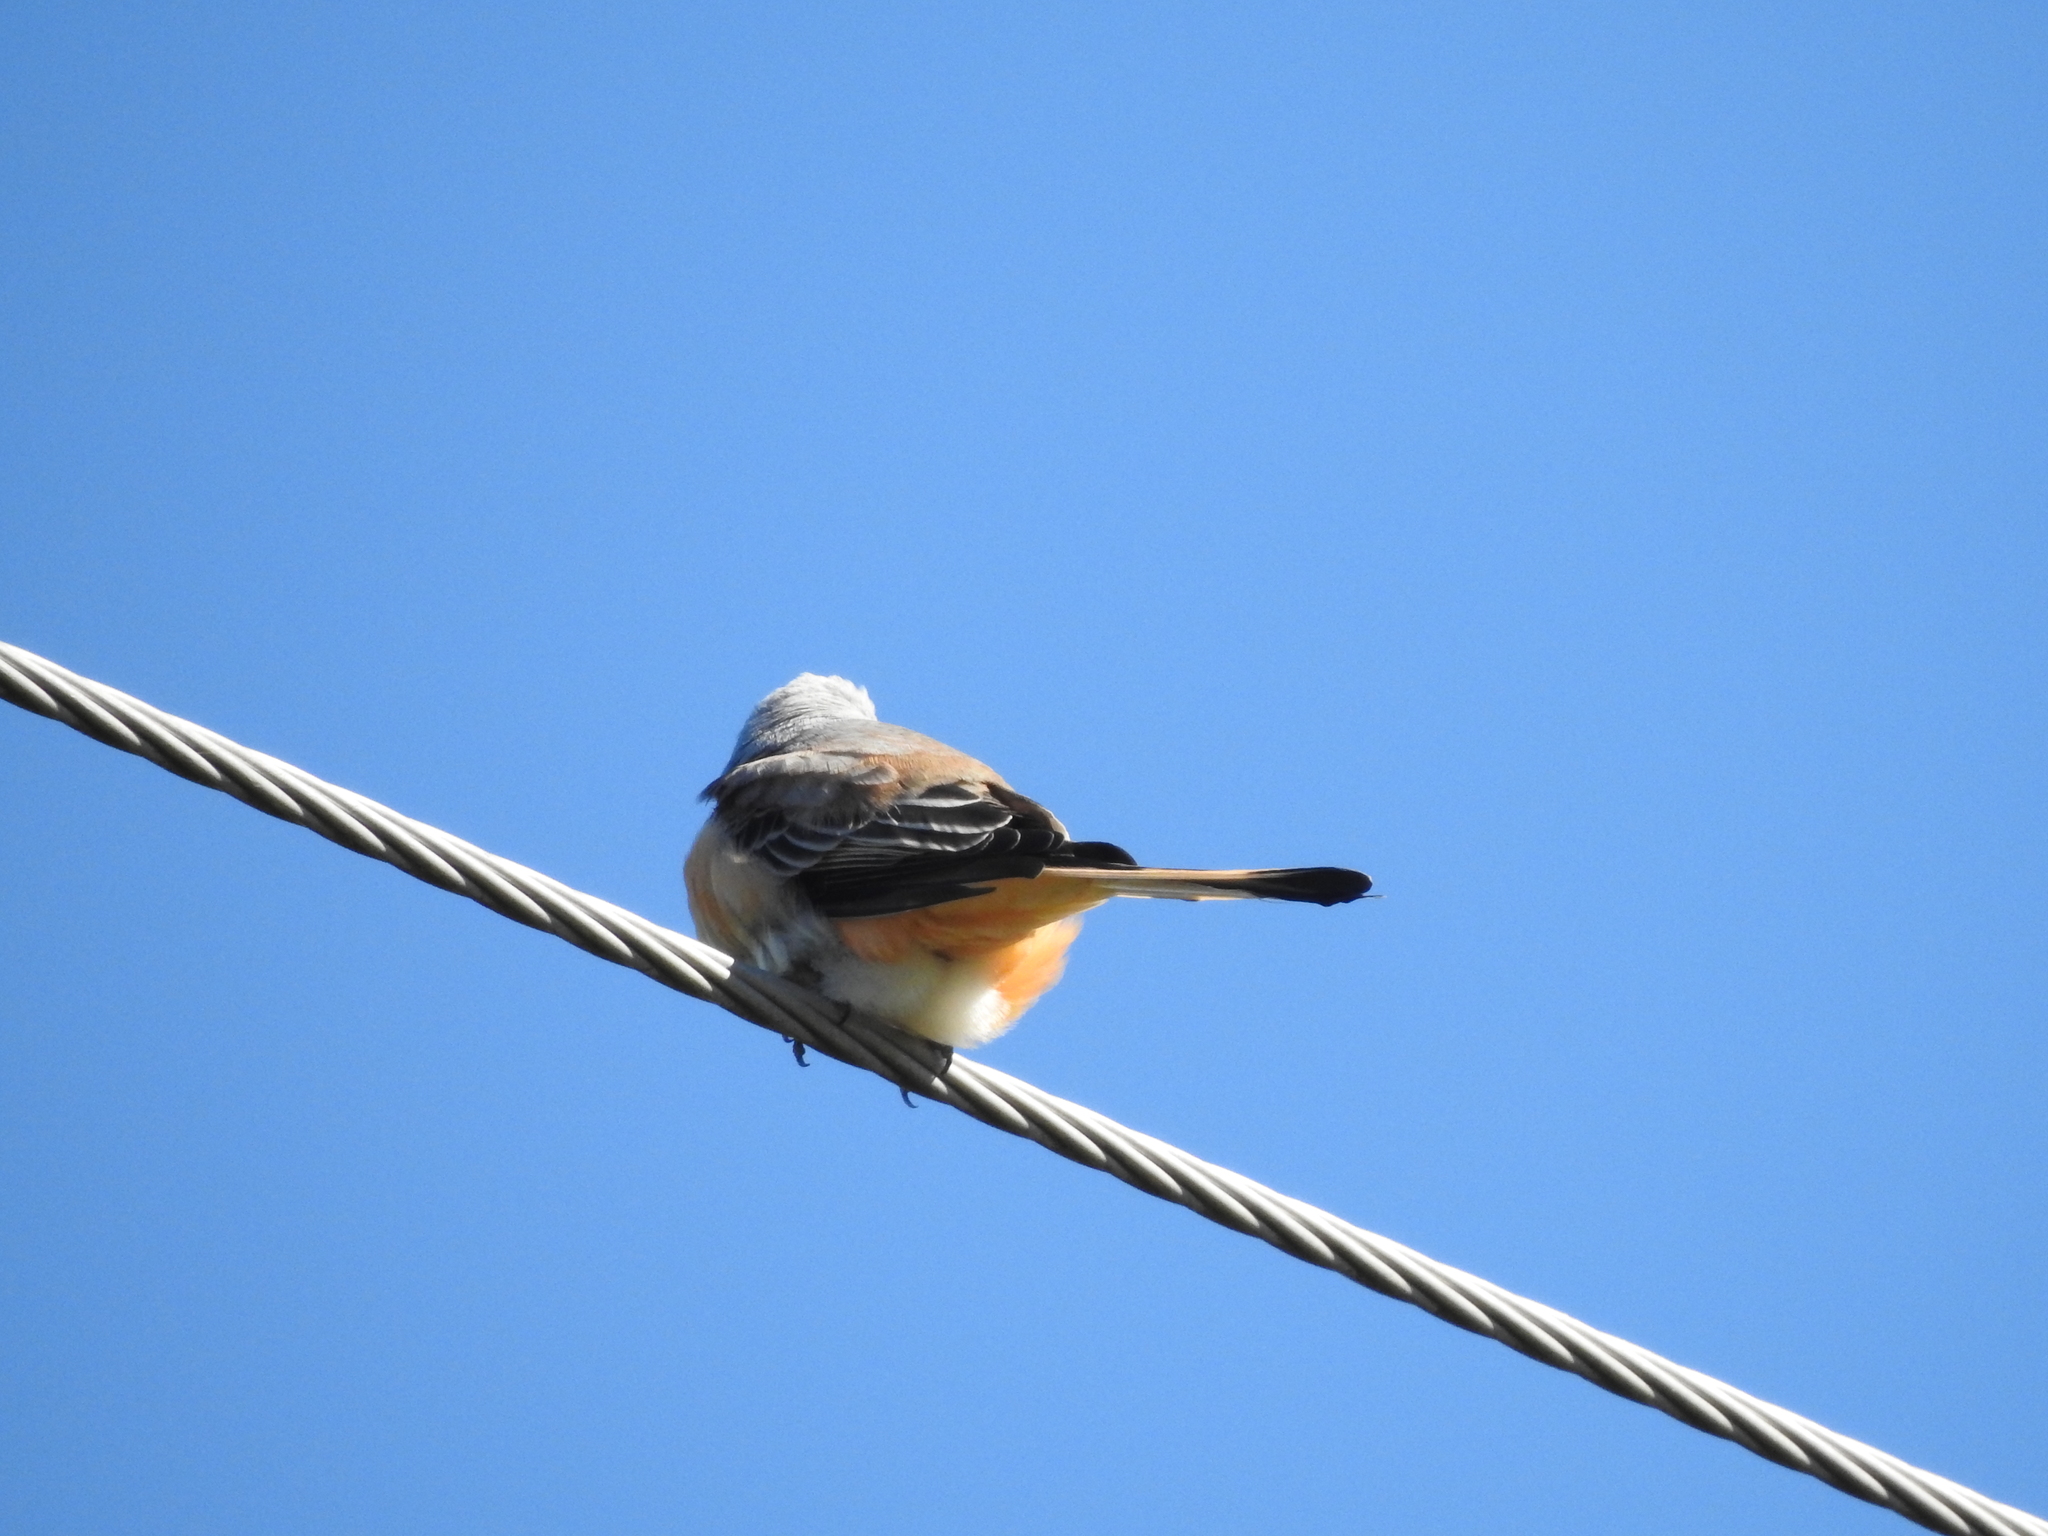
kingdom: Animalia
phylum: Chordata
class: Aves
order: Passeriformes
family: Tyrannidae
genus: Tyrannus
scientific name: Tyrannus forficatus
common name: Scissor-tailed flycatcher
